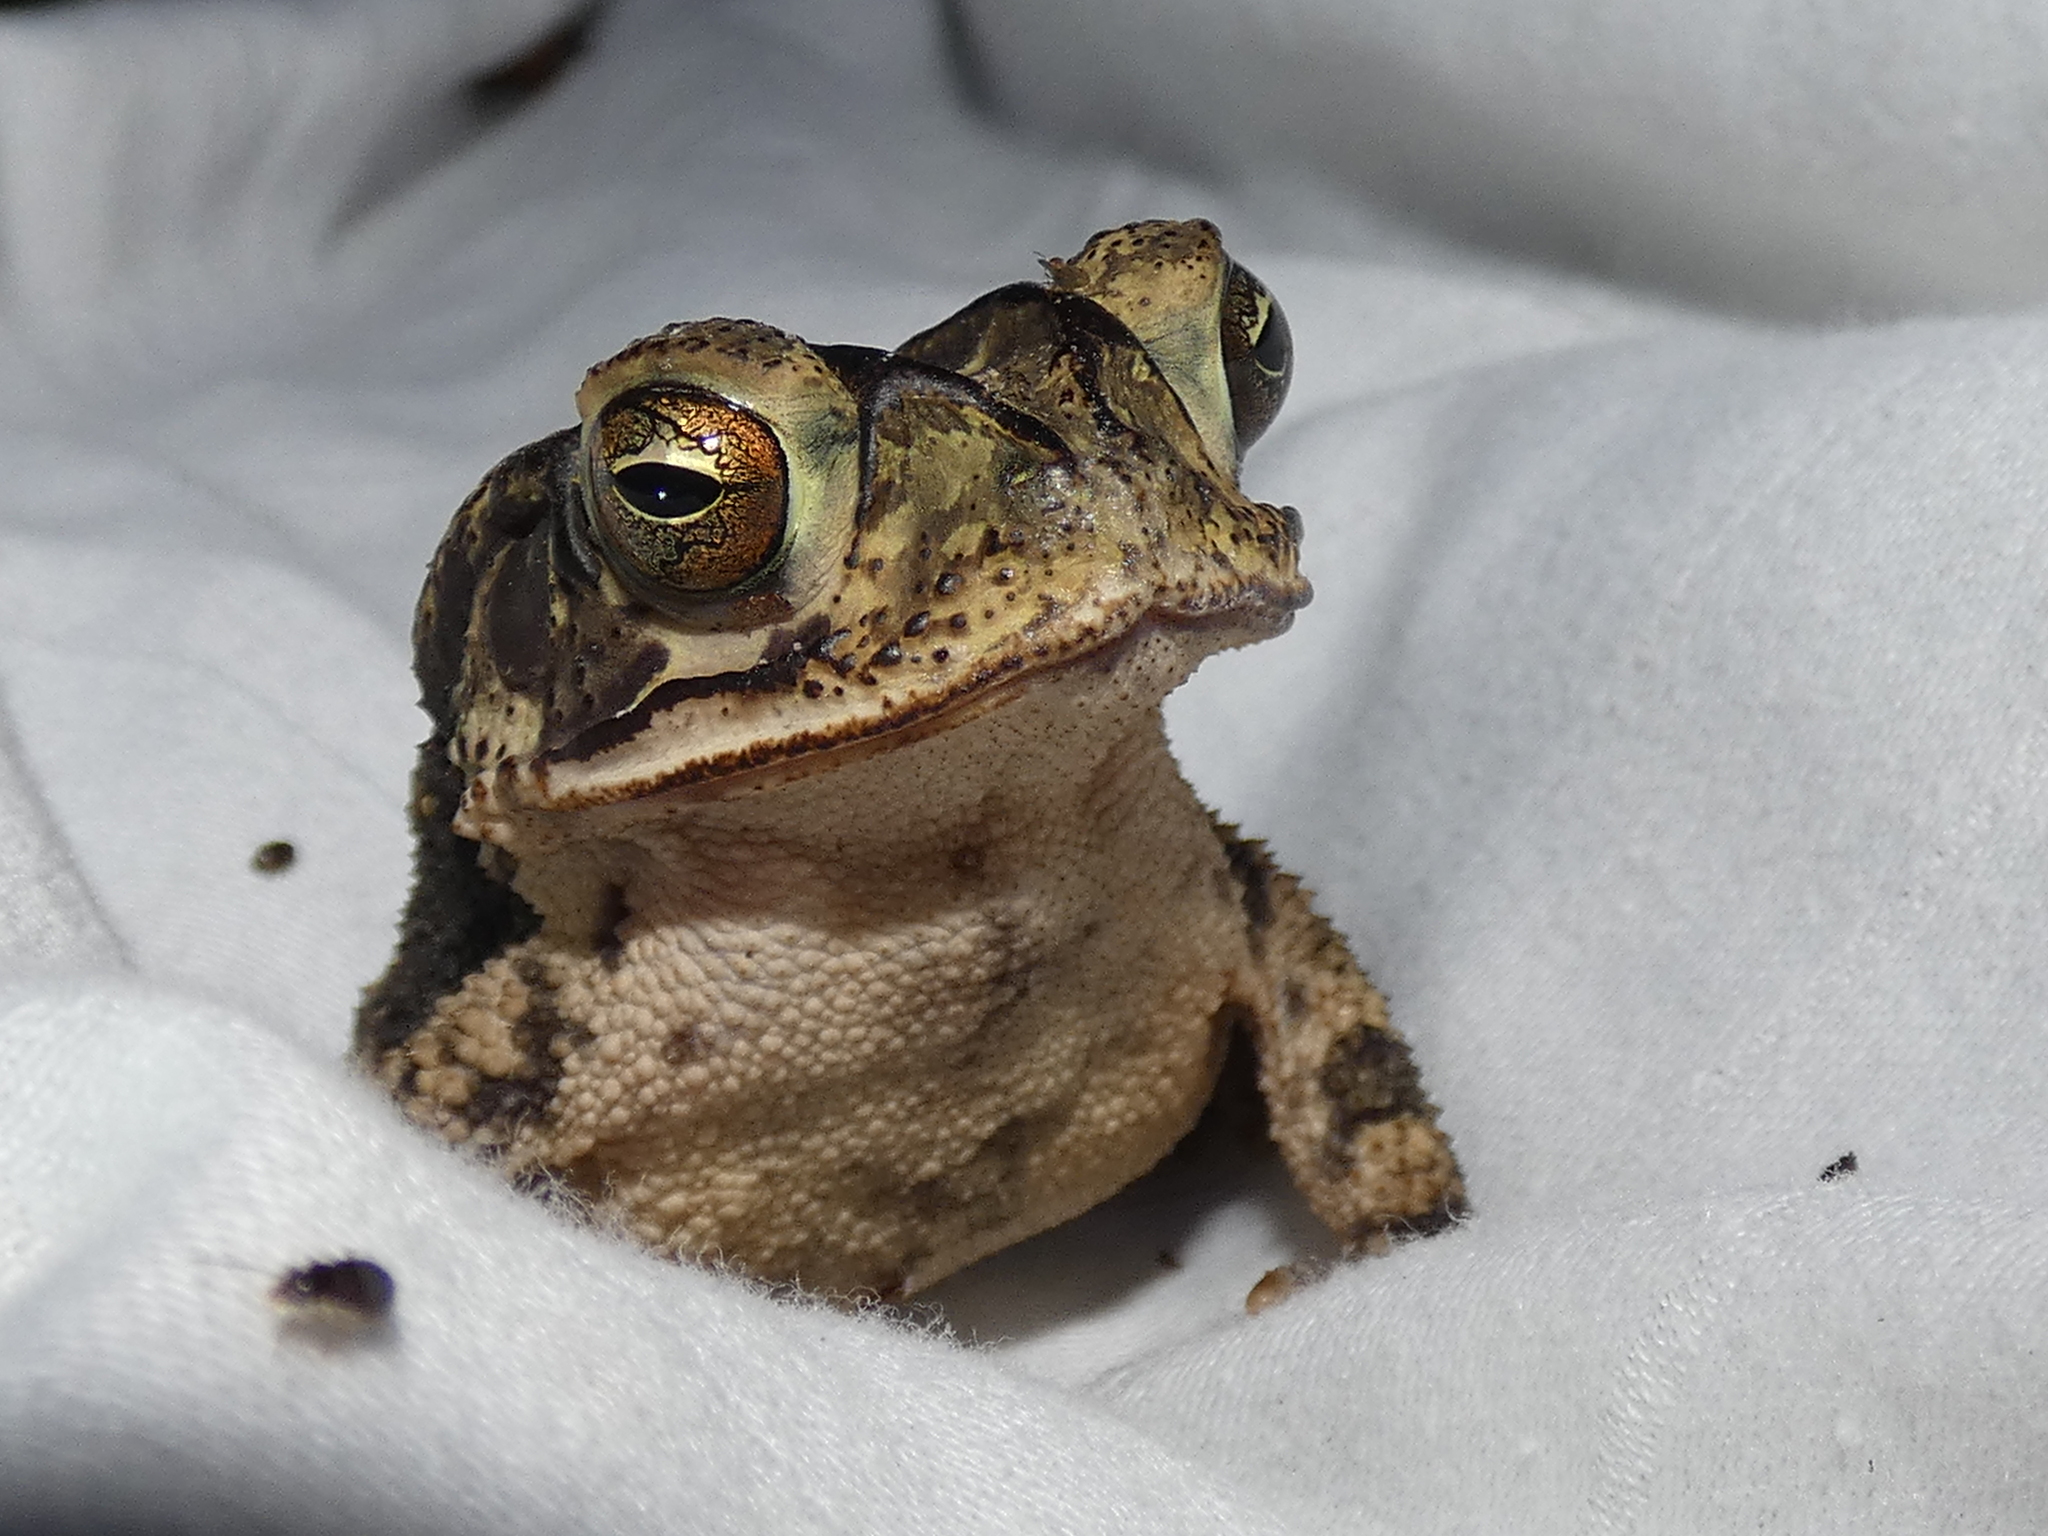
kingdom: Animalia
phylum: Chordata
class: Amphibia
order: Anura
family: Bufonidae
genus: Incilius
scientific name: Incilius nebulifer
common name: Gulf coast toad
